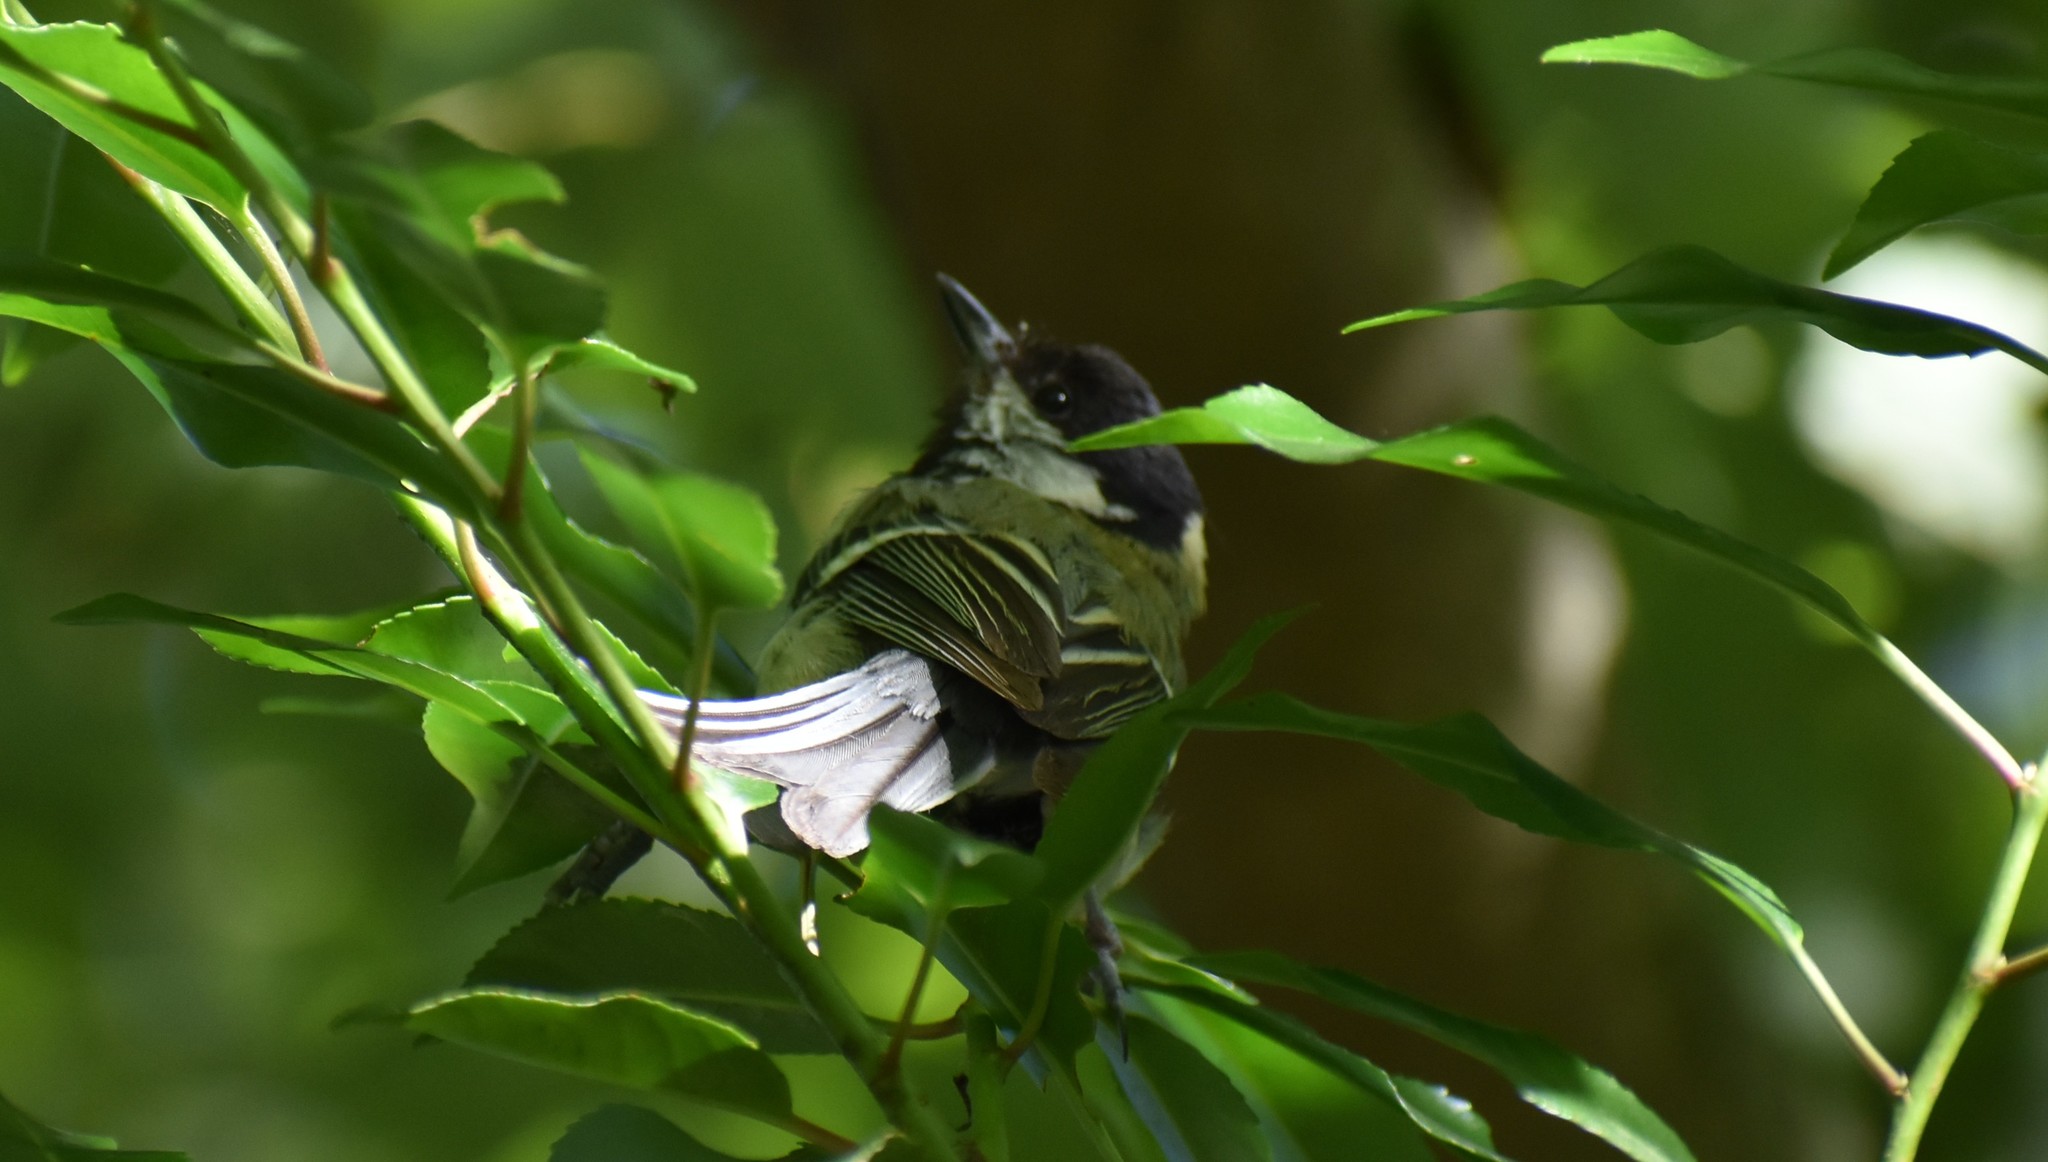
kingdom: Animalia
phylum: Chordata
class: Aves
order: Passeriformes
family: Paridae
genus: Parus
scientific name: Parus major
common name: Great tit
